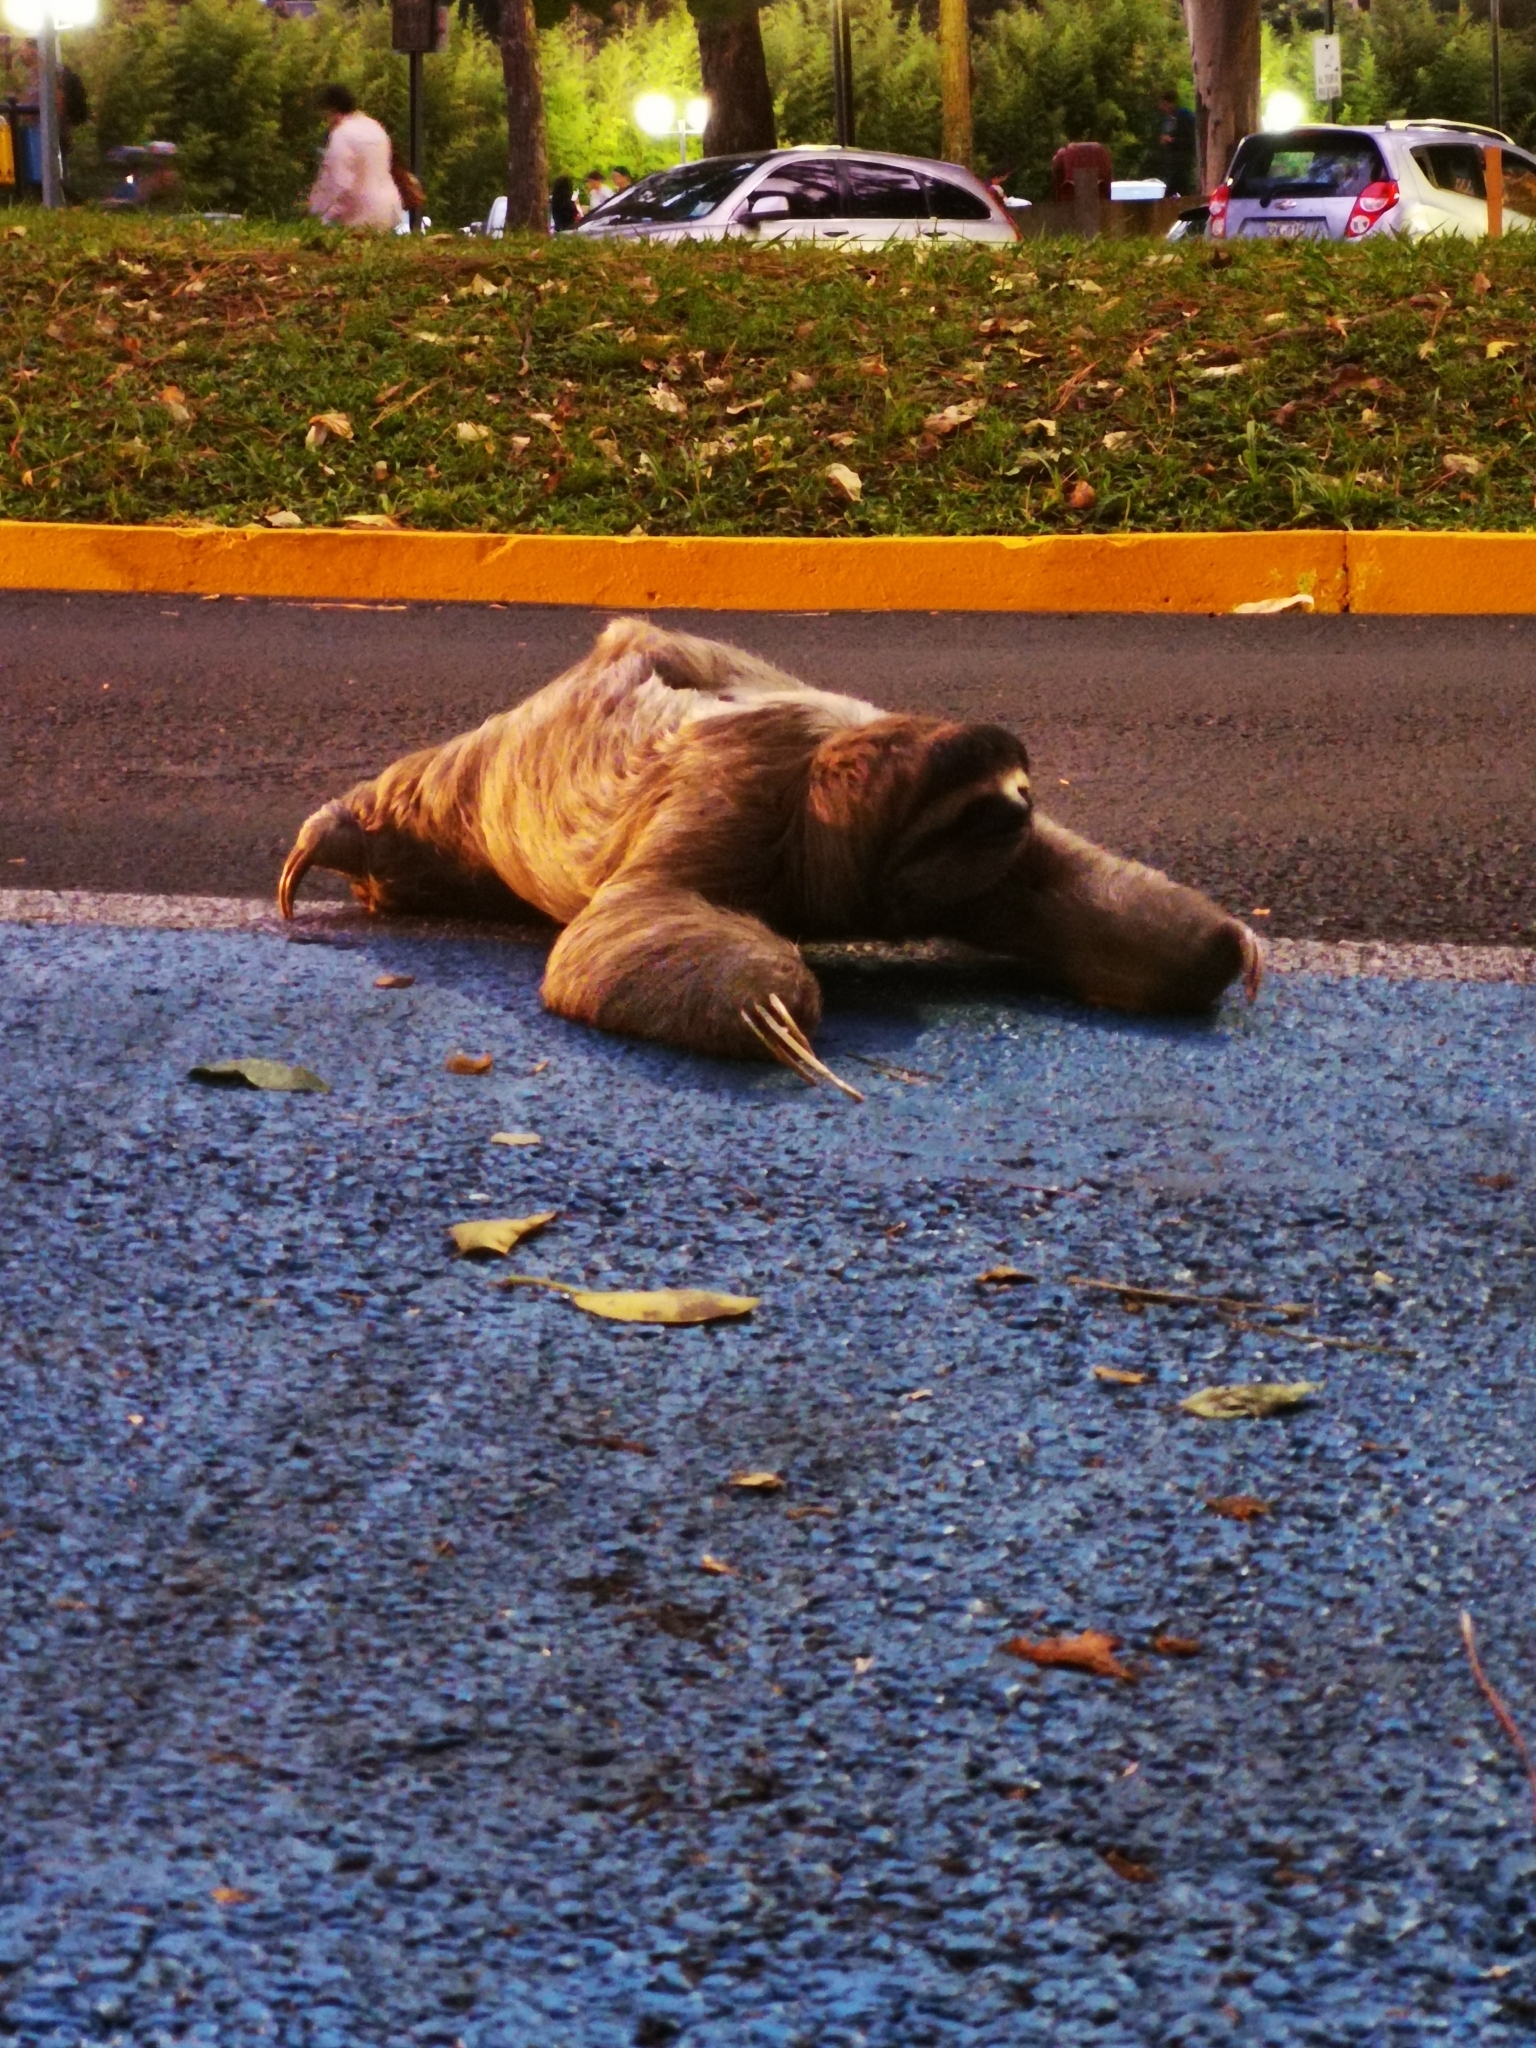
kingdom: Animalia
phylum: Chordata
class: Mammalia
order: Pilosa
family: Bradypodidae
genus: Bradypus
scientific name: Bradypus variegatus
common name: Brown-throated three-toed sloth
